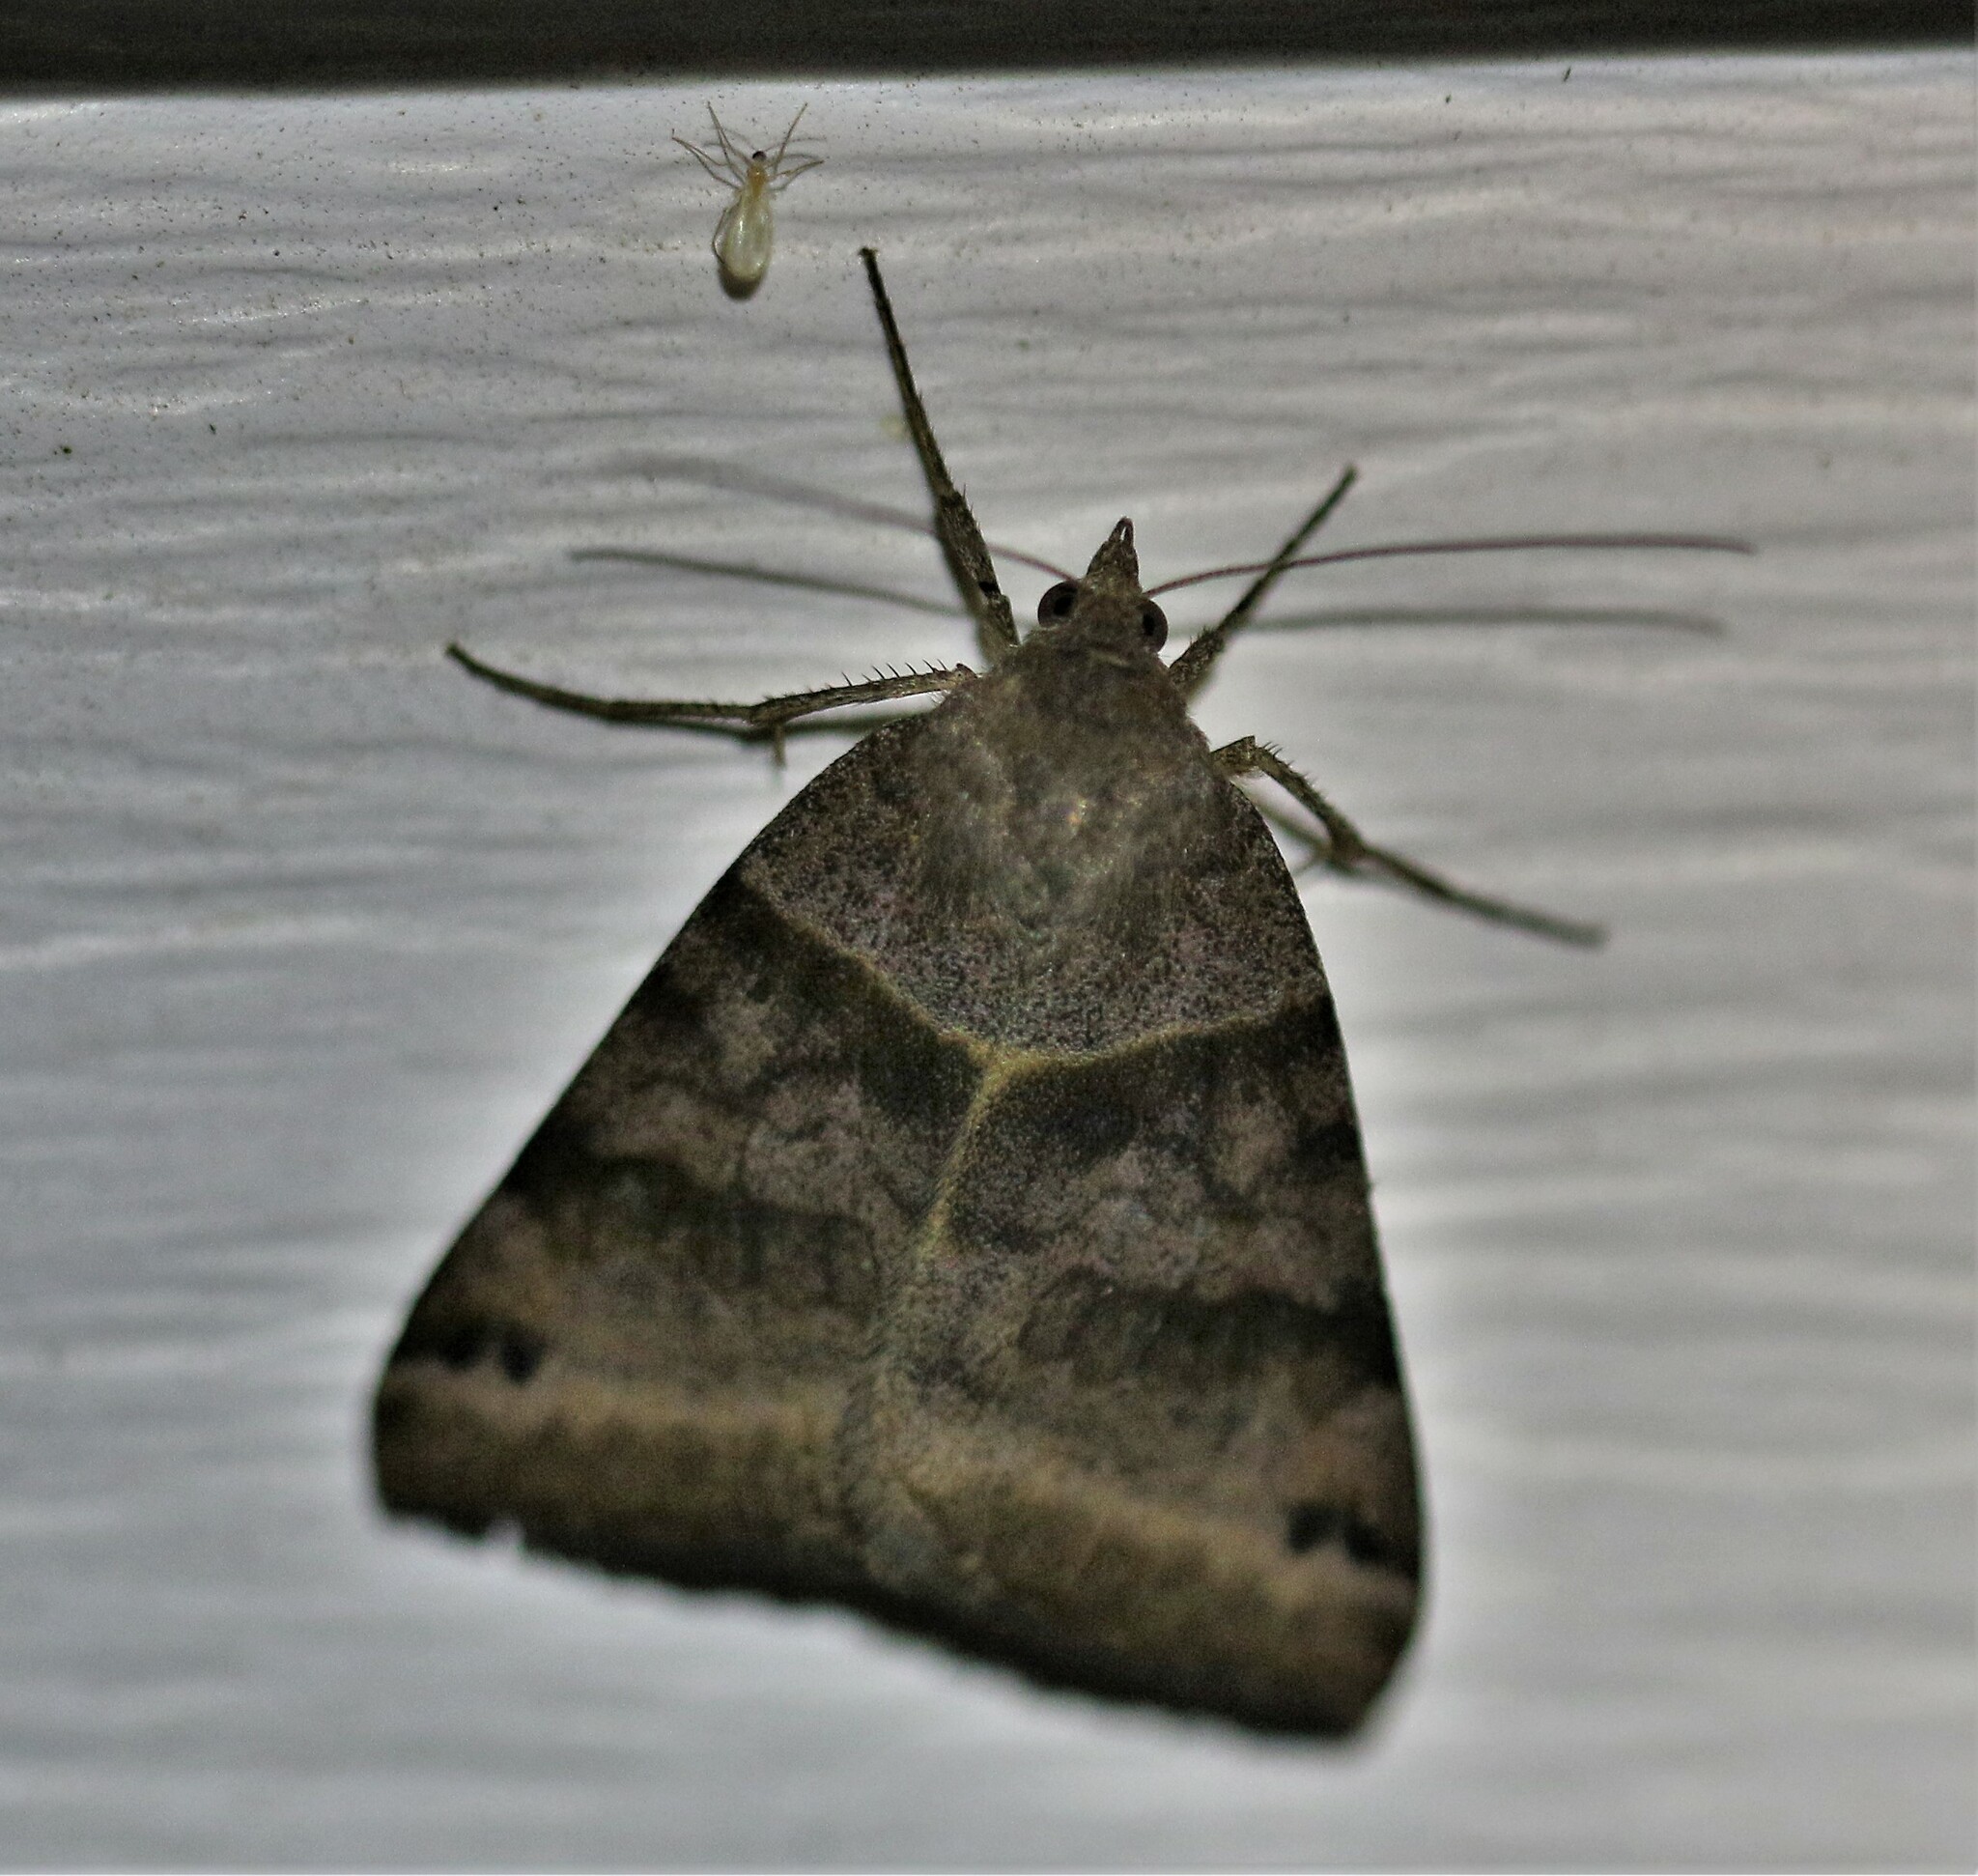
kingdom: Animalia
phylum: Arthropoda
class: Insecta
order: Lepidoptera
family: Erebidae
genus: Caenurgina
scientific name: Caenurgina crassiuscula
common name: Double-barred
